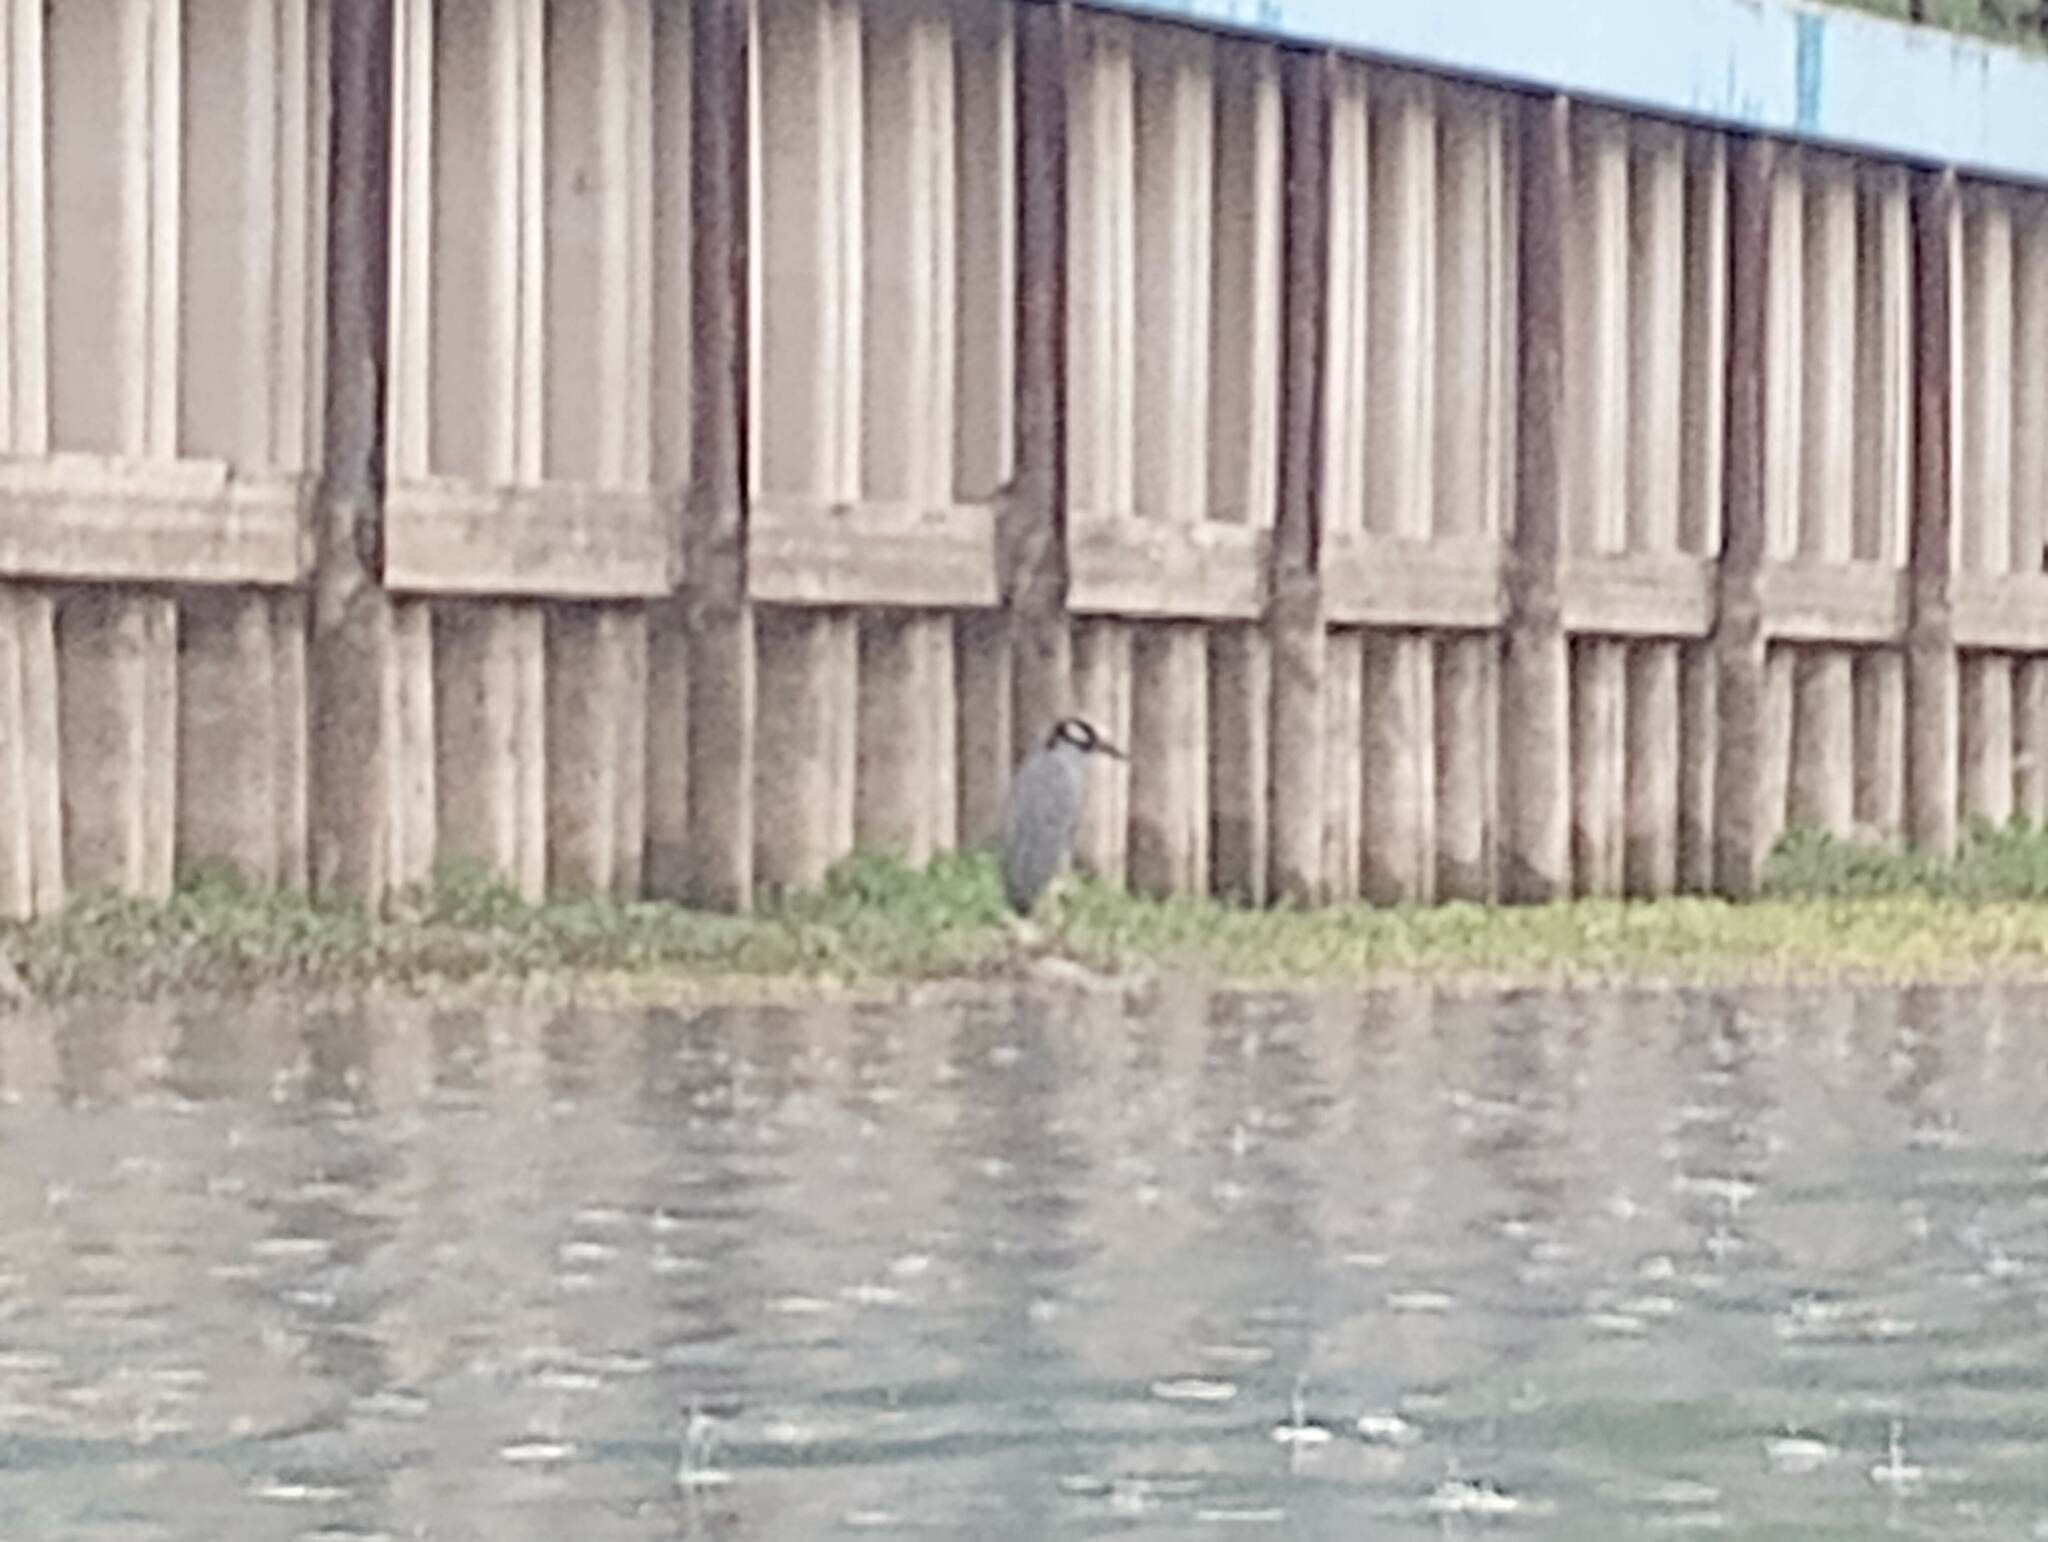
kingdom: Animalia
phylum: Chordata
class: Aves
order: Pelecaniformes
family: Ardeidae
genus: Nyctanassa
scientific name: Nyctanassa violacea
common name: Yellow-crowned night heron
